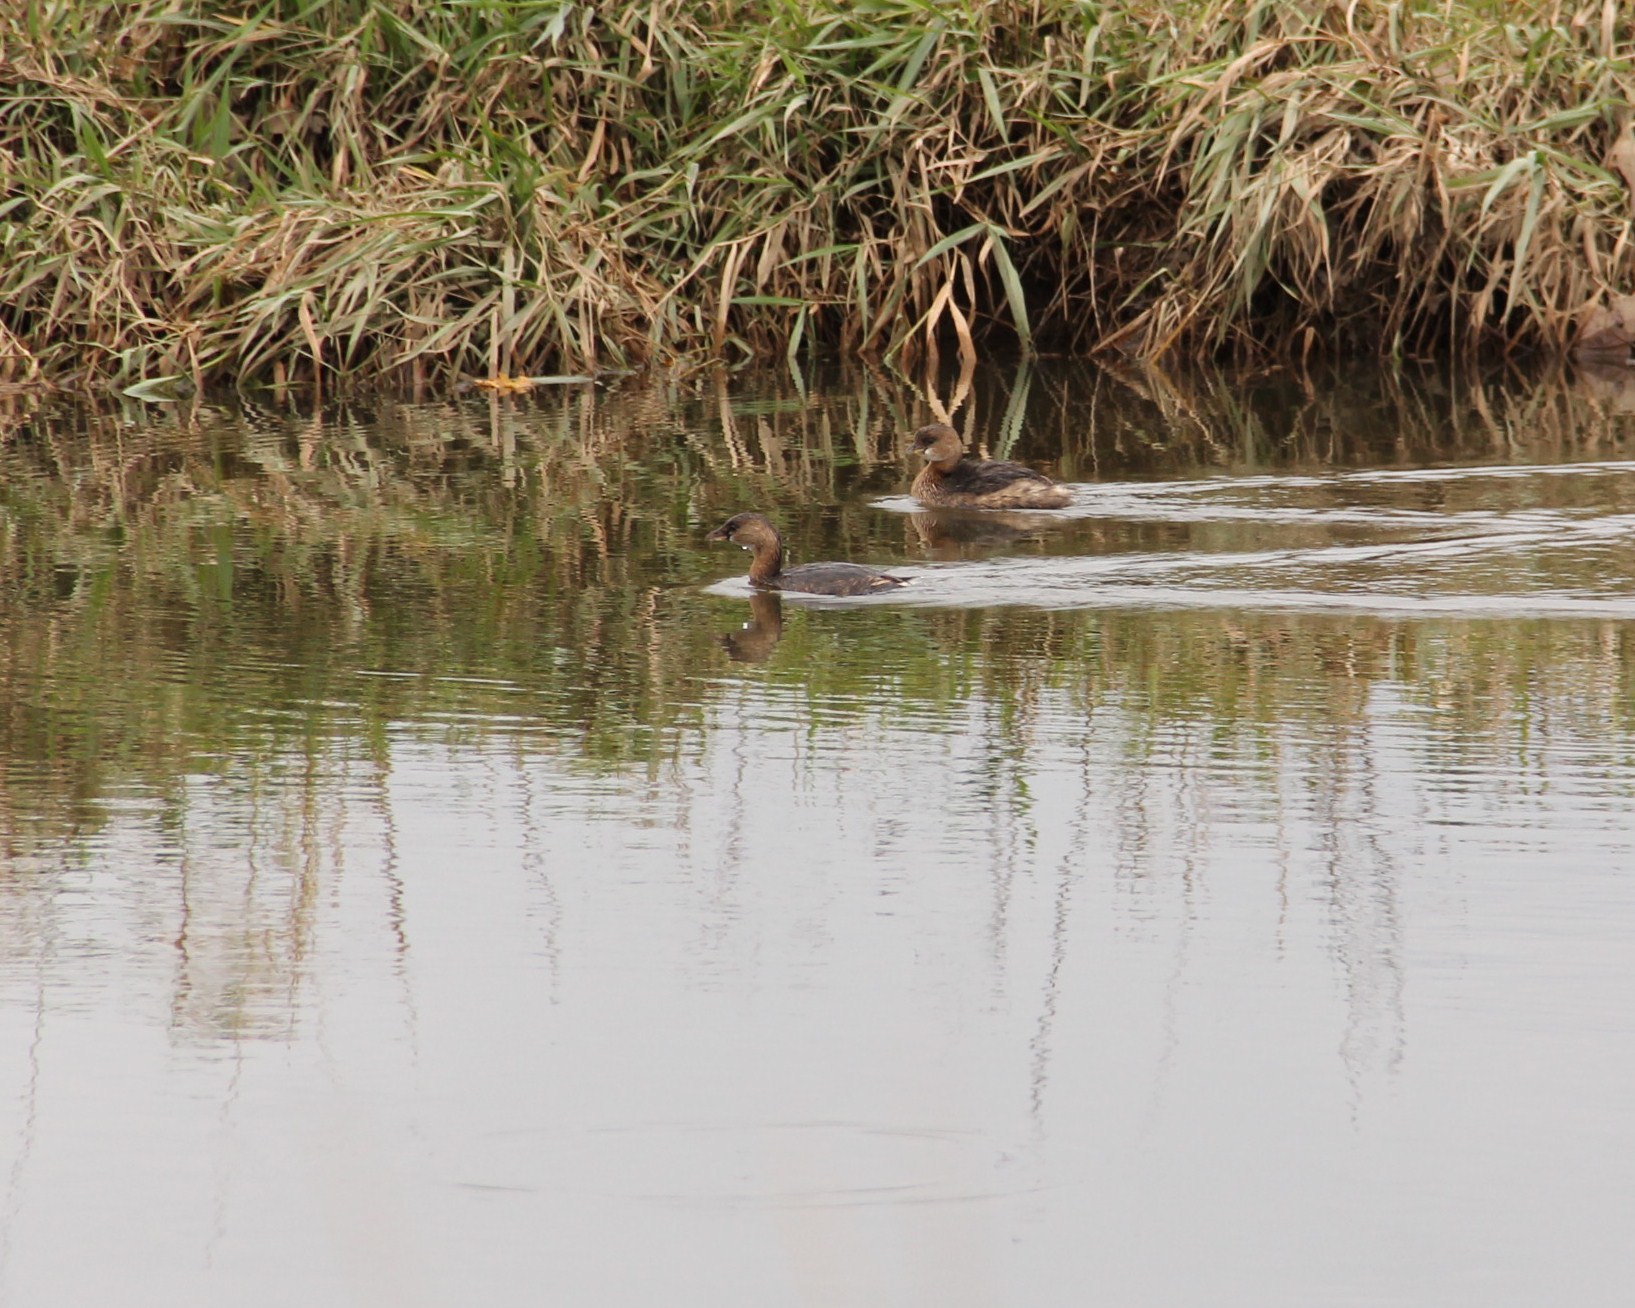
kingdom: Animalia
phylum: Chordata
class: Aves
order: Podicipediformes
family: Podicipedidae
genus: Podilymbus
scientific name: Podilymbus podiceps
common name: Pied-billed grebe
